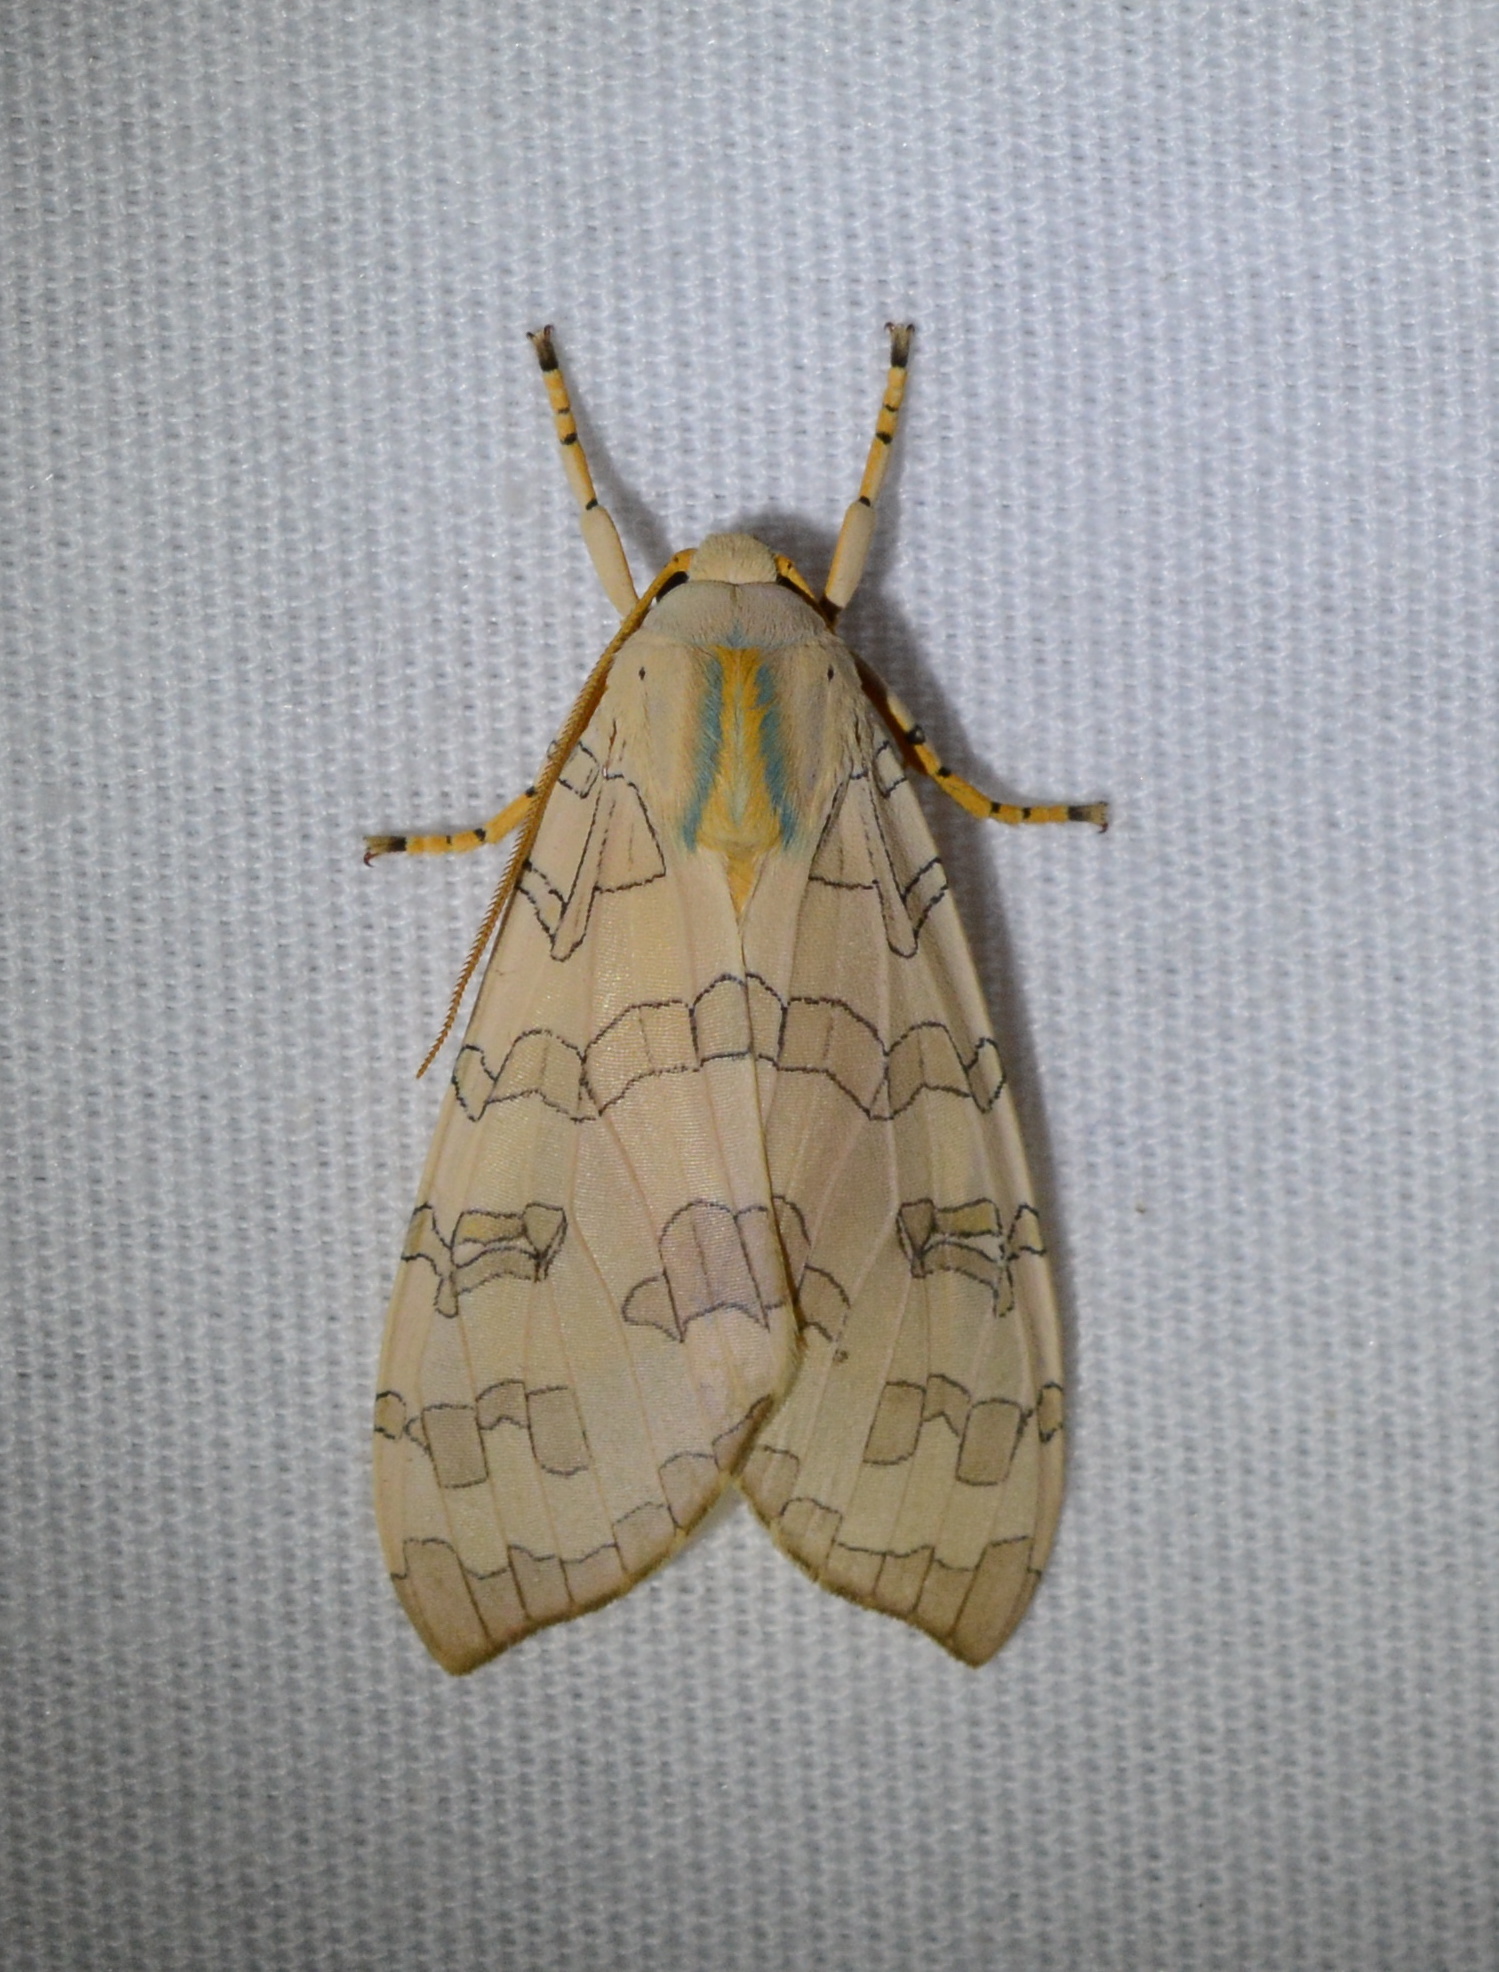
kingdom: Animalia
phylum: Arthropoda
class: Insecta
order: Lepidoptera
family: Erebidae
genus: Halysidota
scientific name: Halysidota
